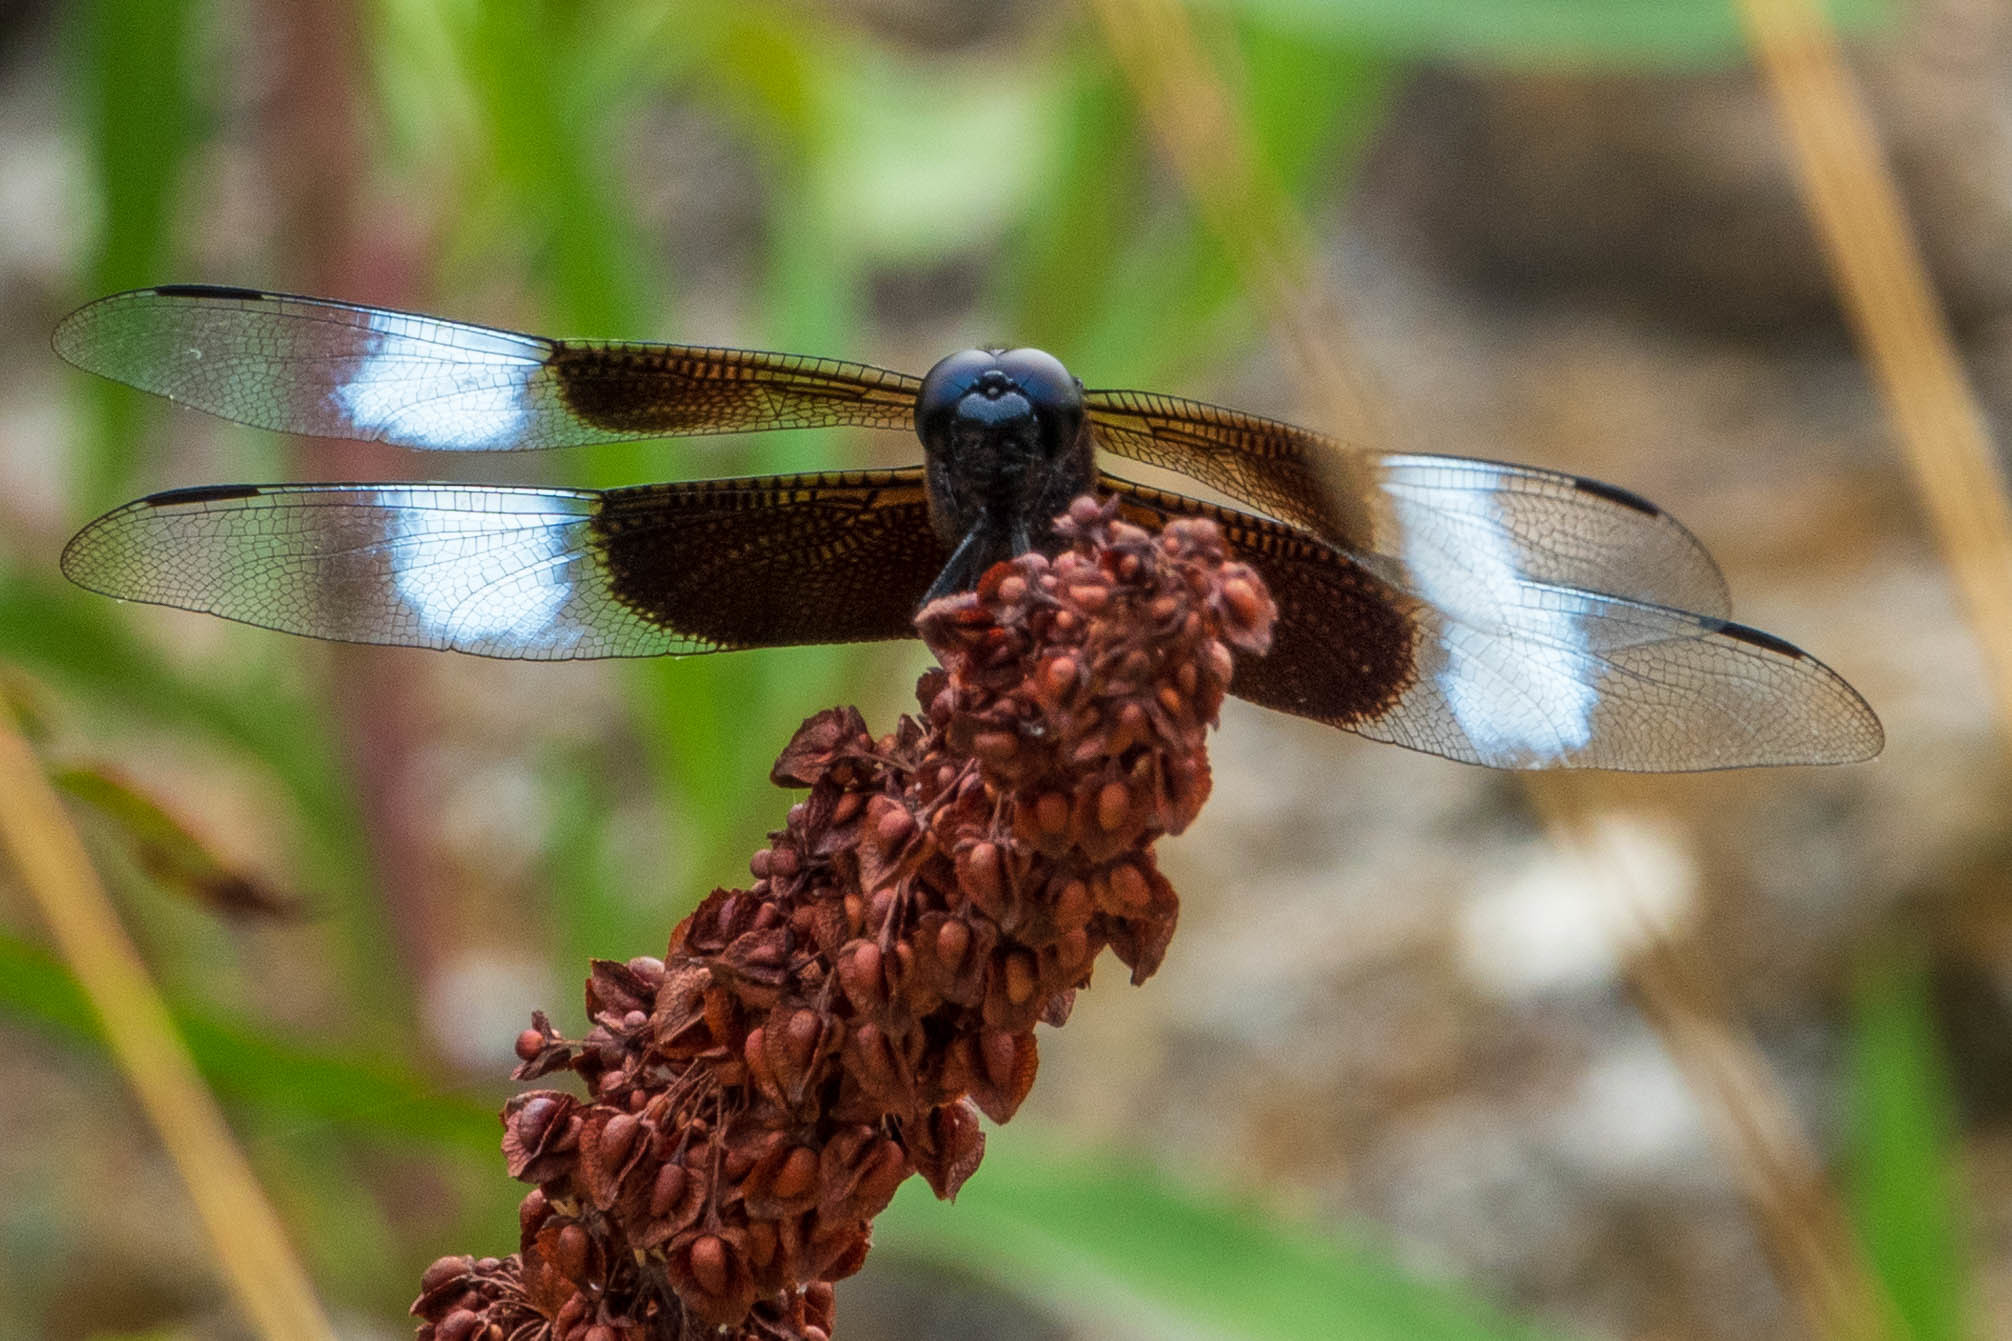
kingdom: Animalia
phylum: Arthropoda
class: Insecta
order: Odonata
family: Libellulidae
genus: Libellula
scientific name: Libellula luctuosa
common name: Widow skimmer
